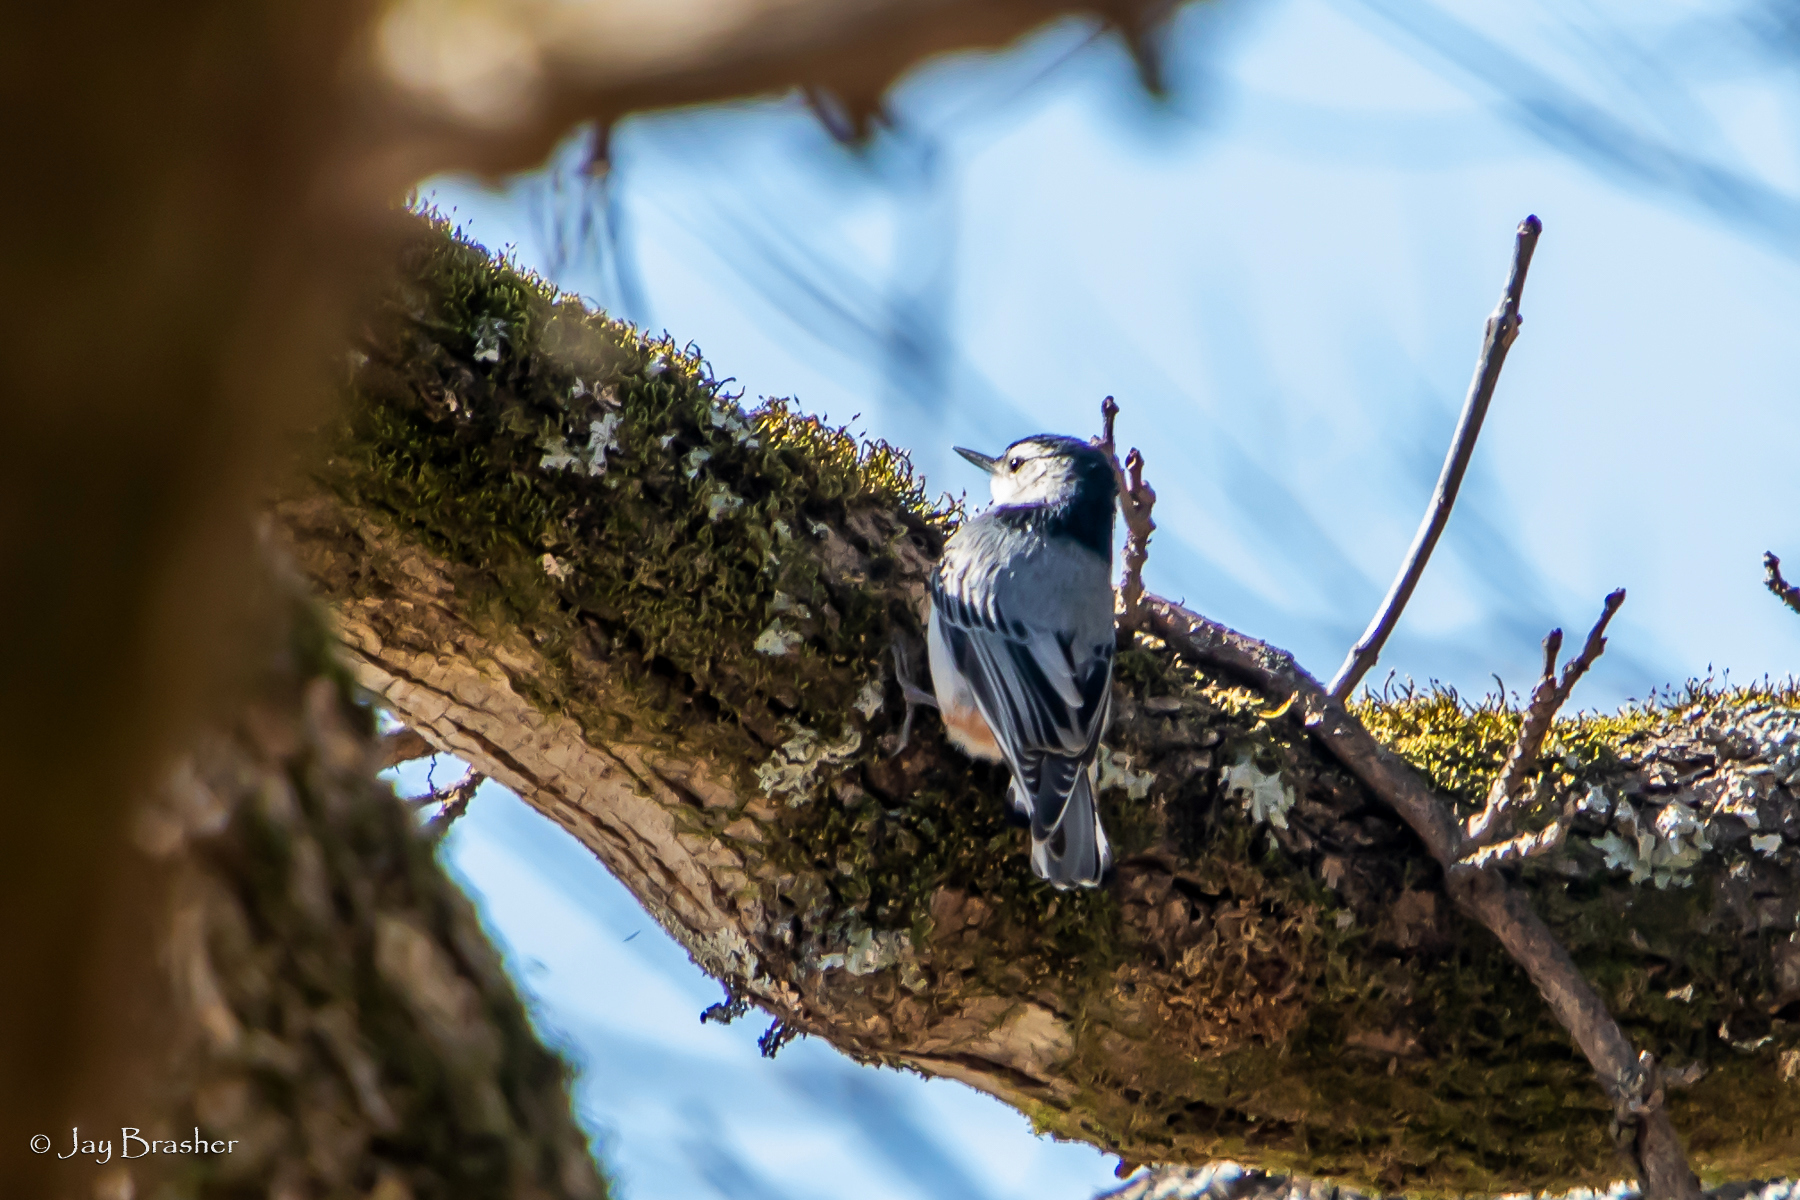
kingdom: Animalia
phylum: Chordata
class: Aves
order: Passeriformes
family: Sittidae
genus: Sitta
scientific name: Sitta carolinensis
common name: White-breasted nuthatch
